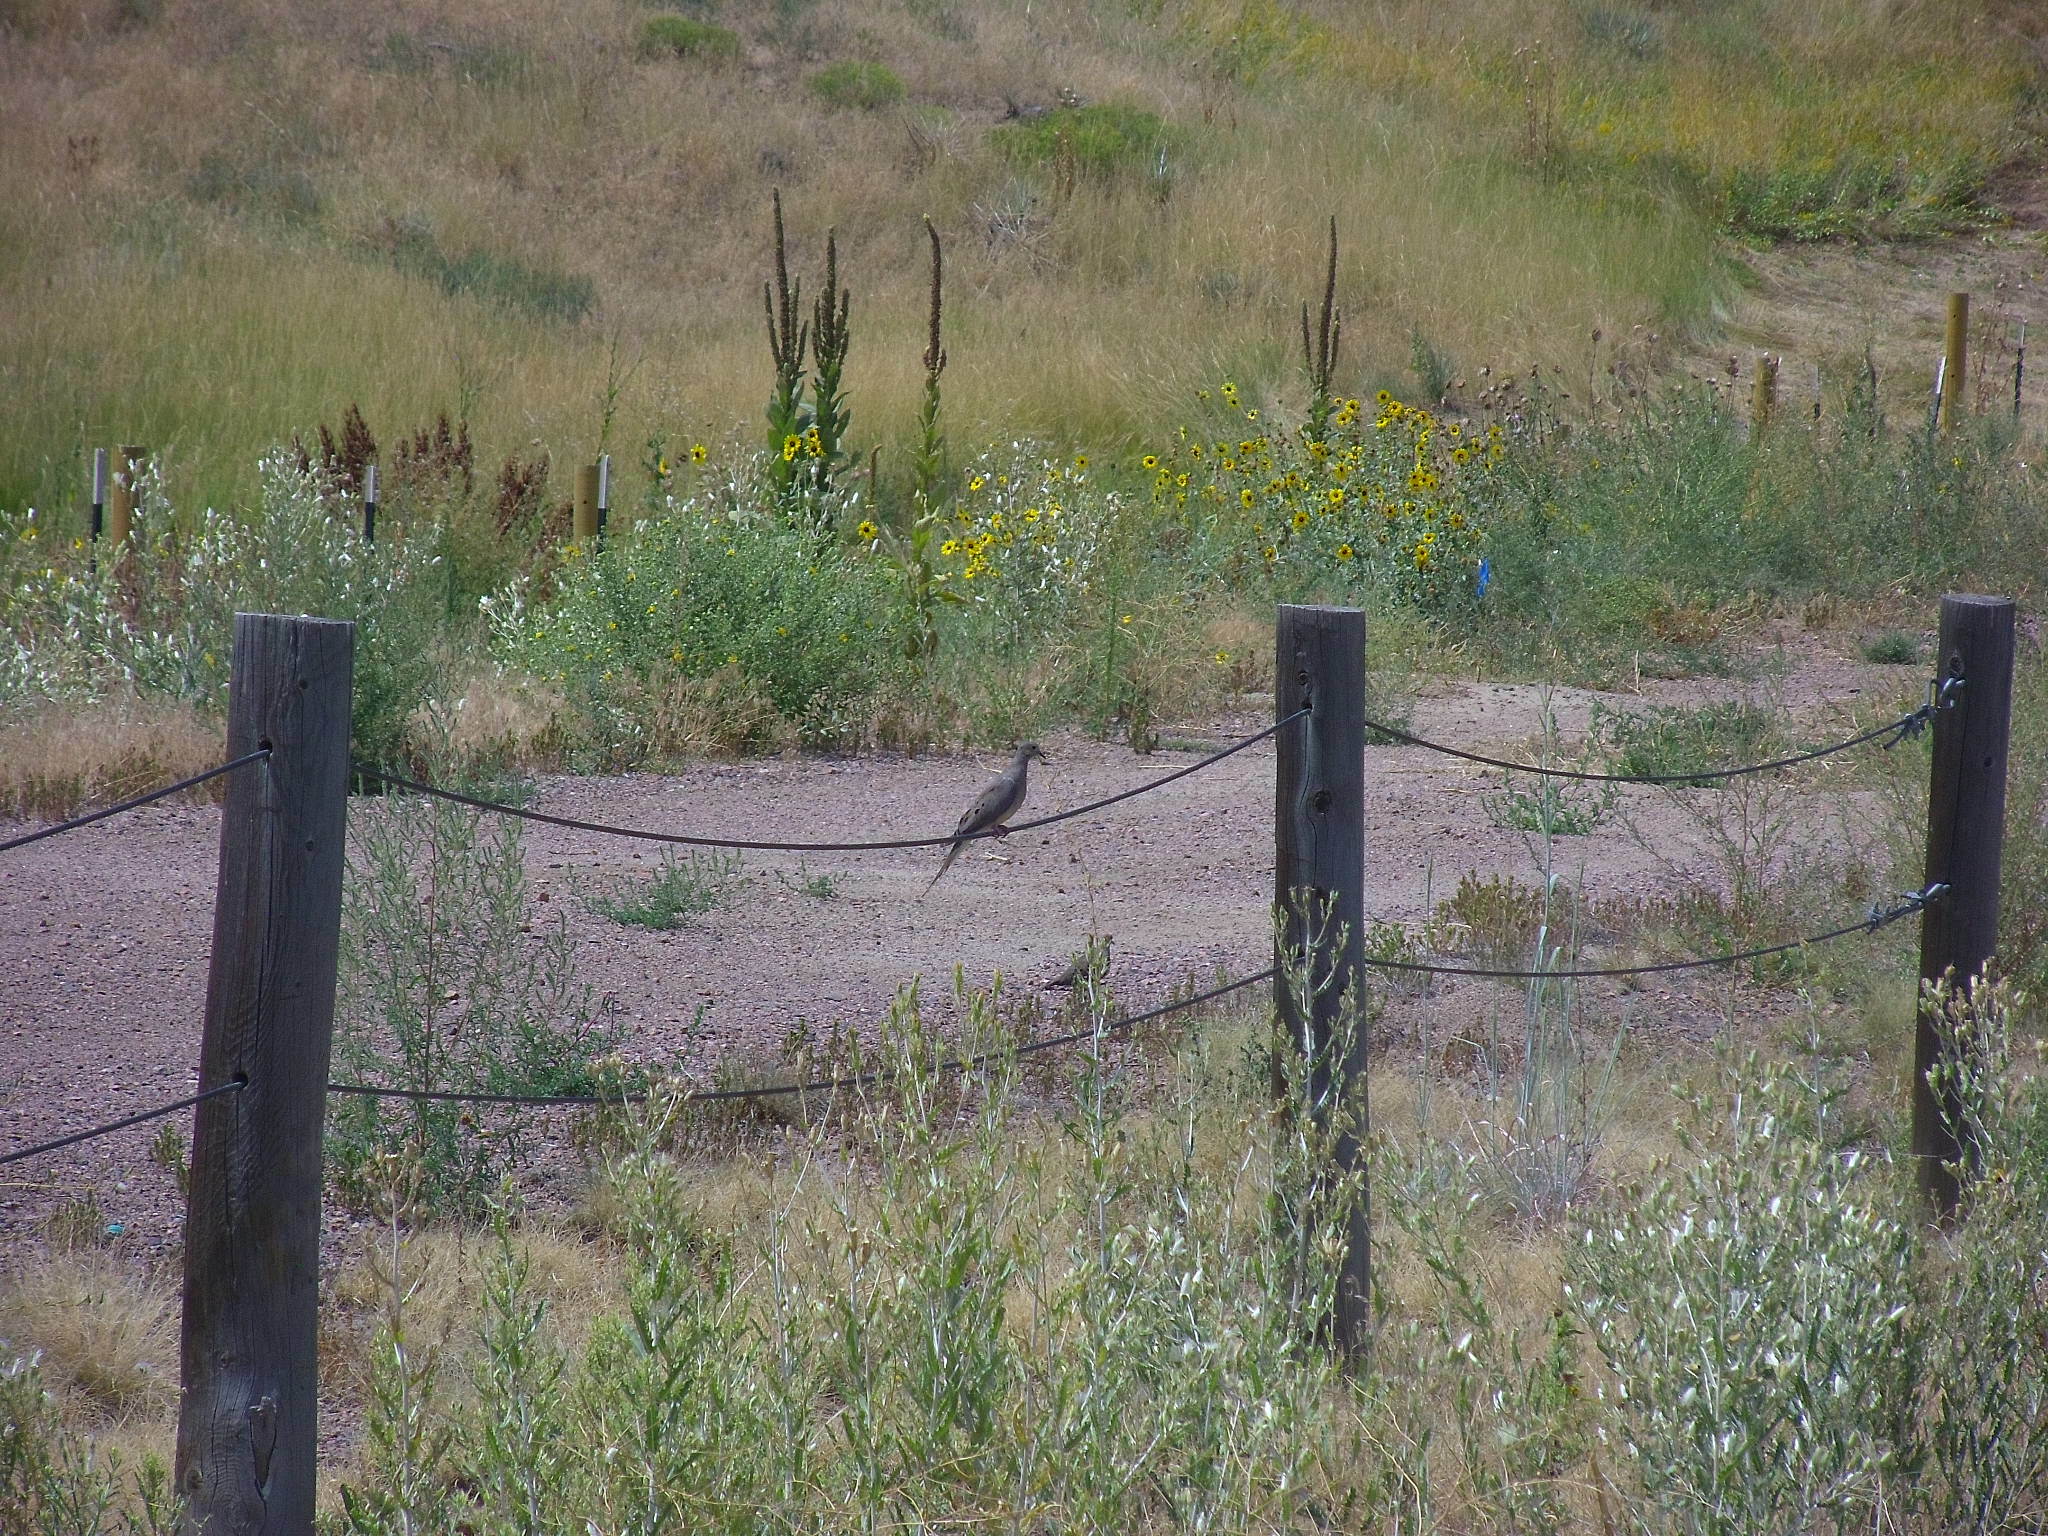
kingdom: Animalia
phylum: Chordata
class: Aves
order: Columbiformes
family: Columbidae
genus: Zenaida
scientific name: Zenaida macroura
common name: Mourning dove
